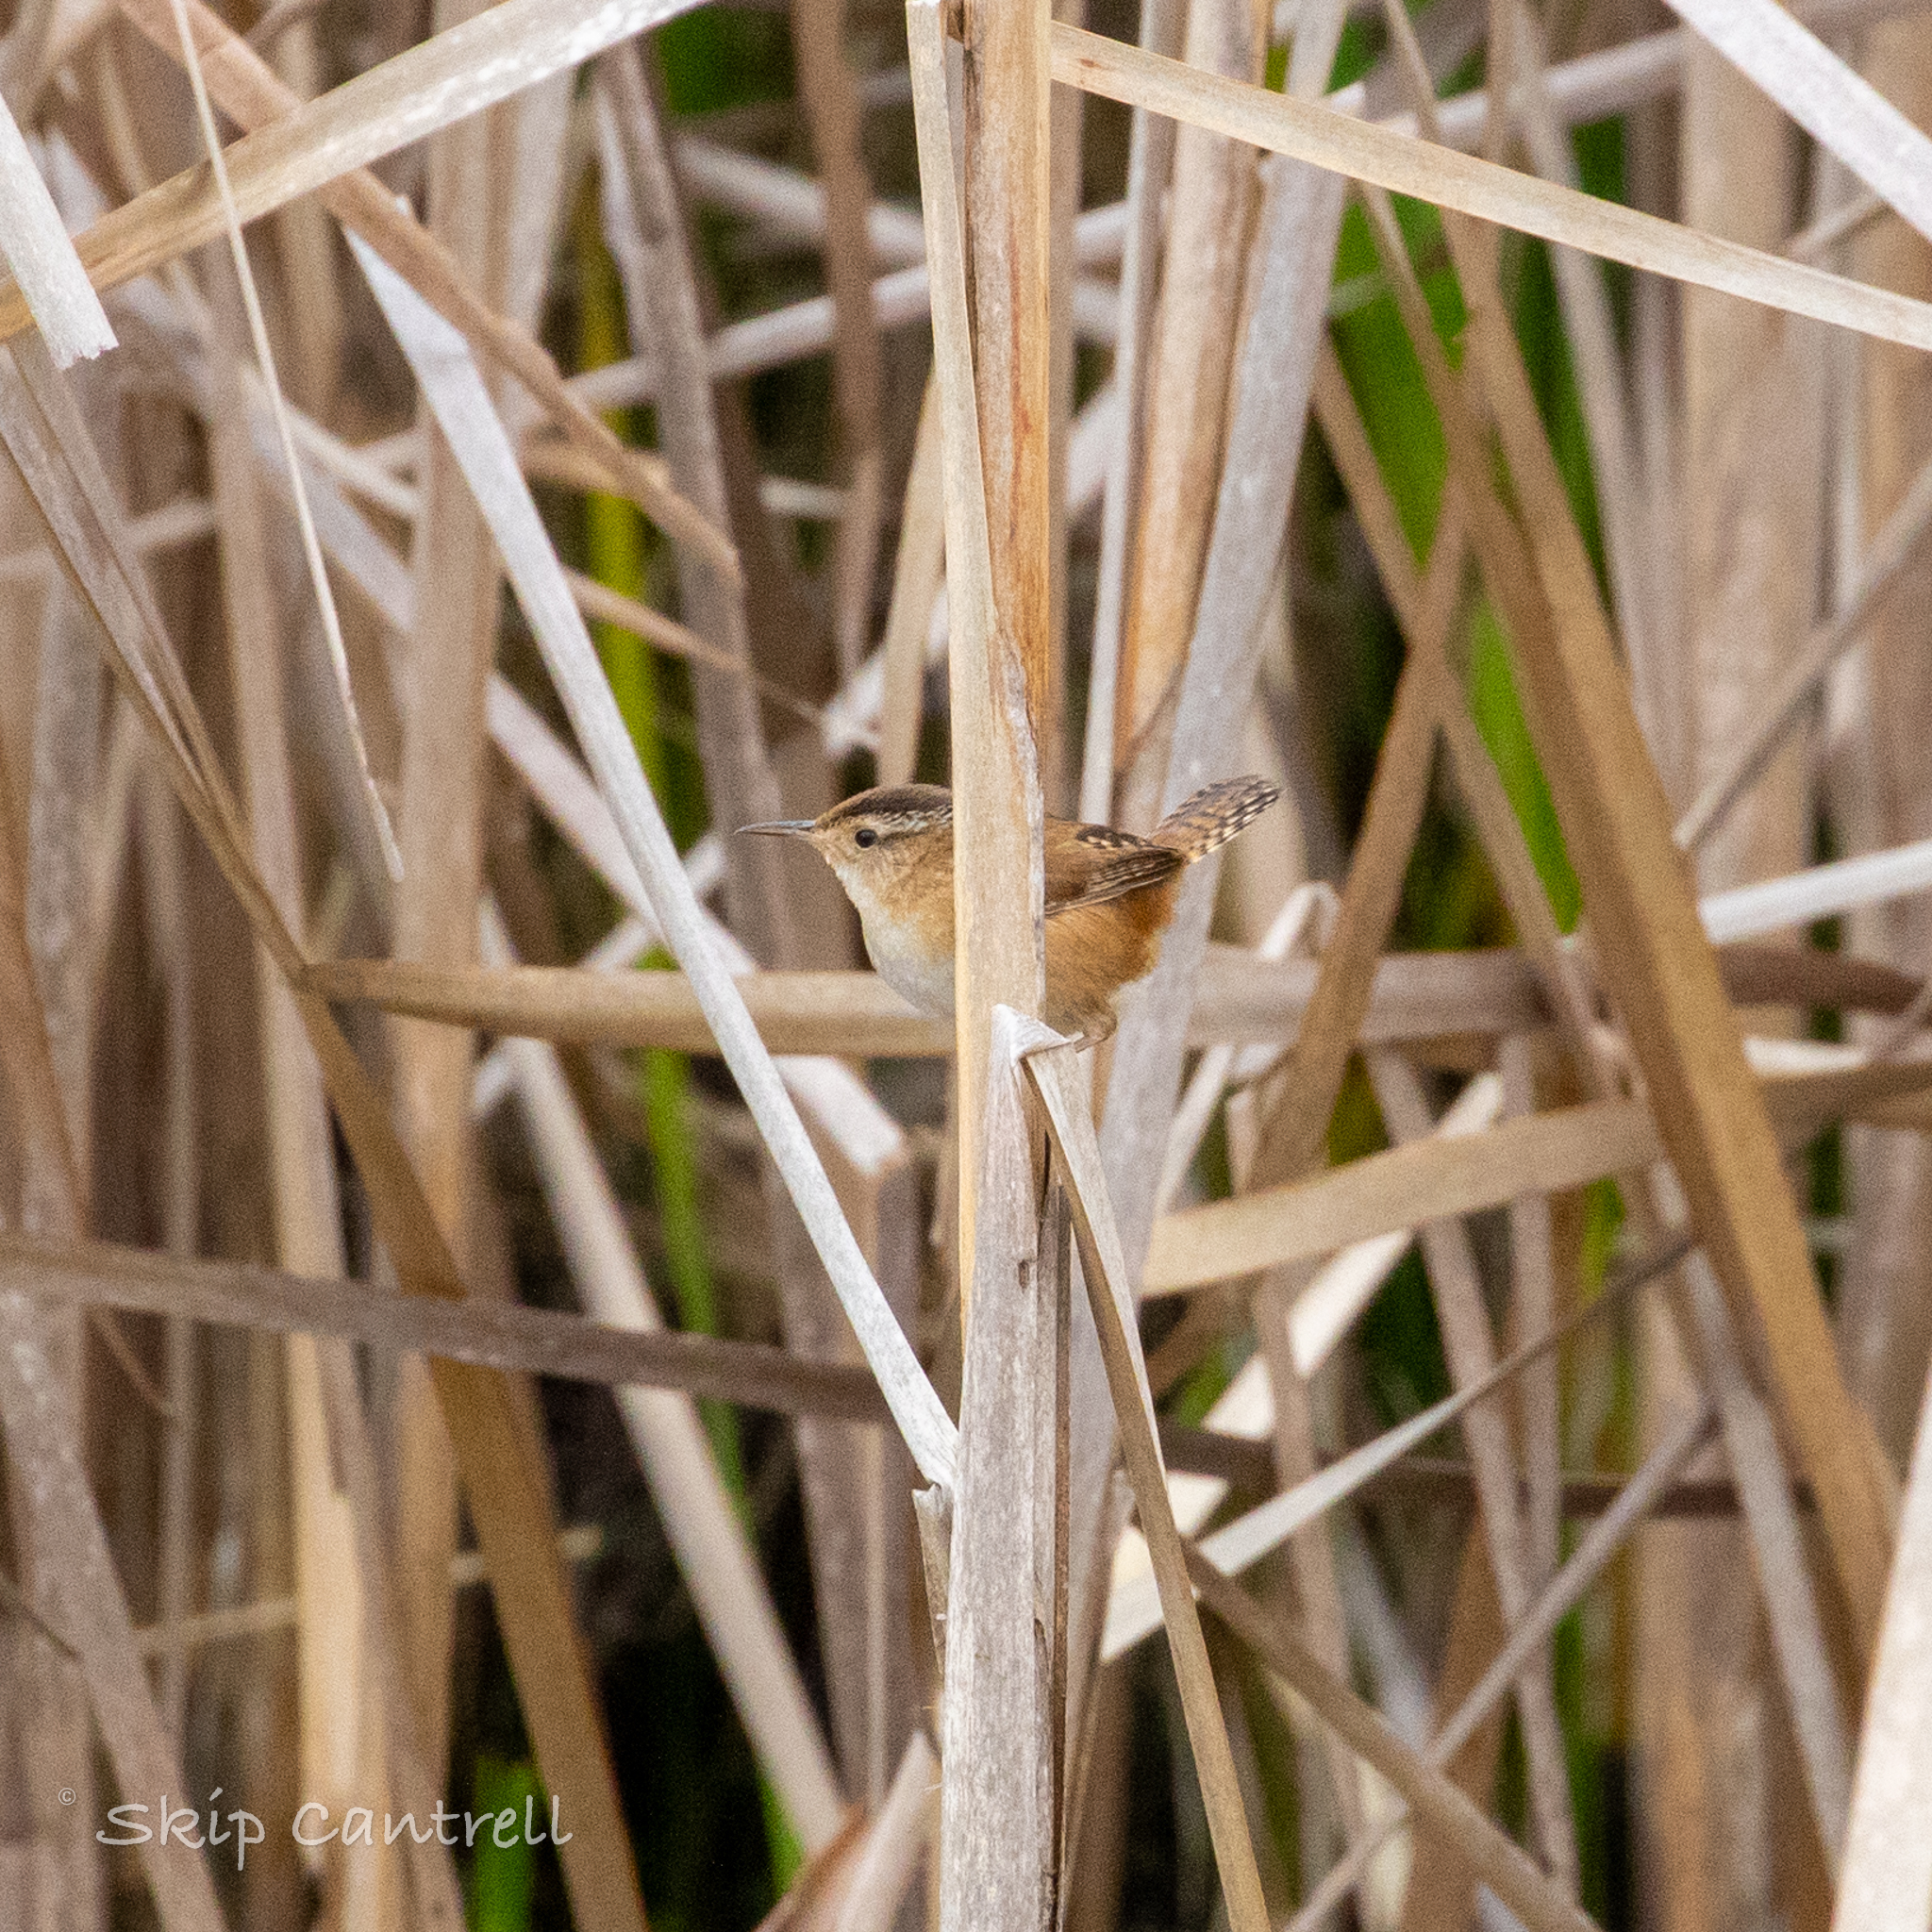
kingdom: Animalia
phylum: Chordata
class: Aves
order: Passeriformes
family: Troglodytidae
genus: Cistothorus
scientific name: Cistothorus palustris
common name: Marsh wren
